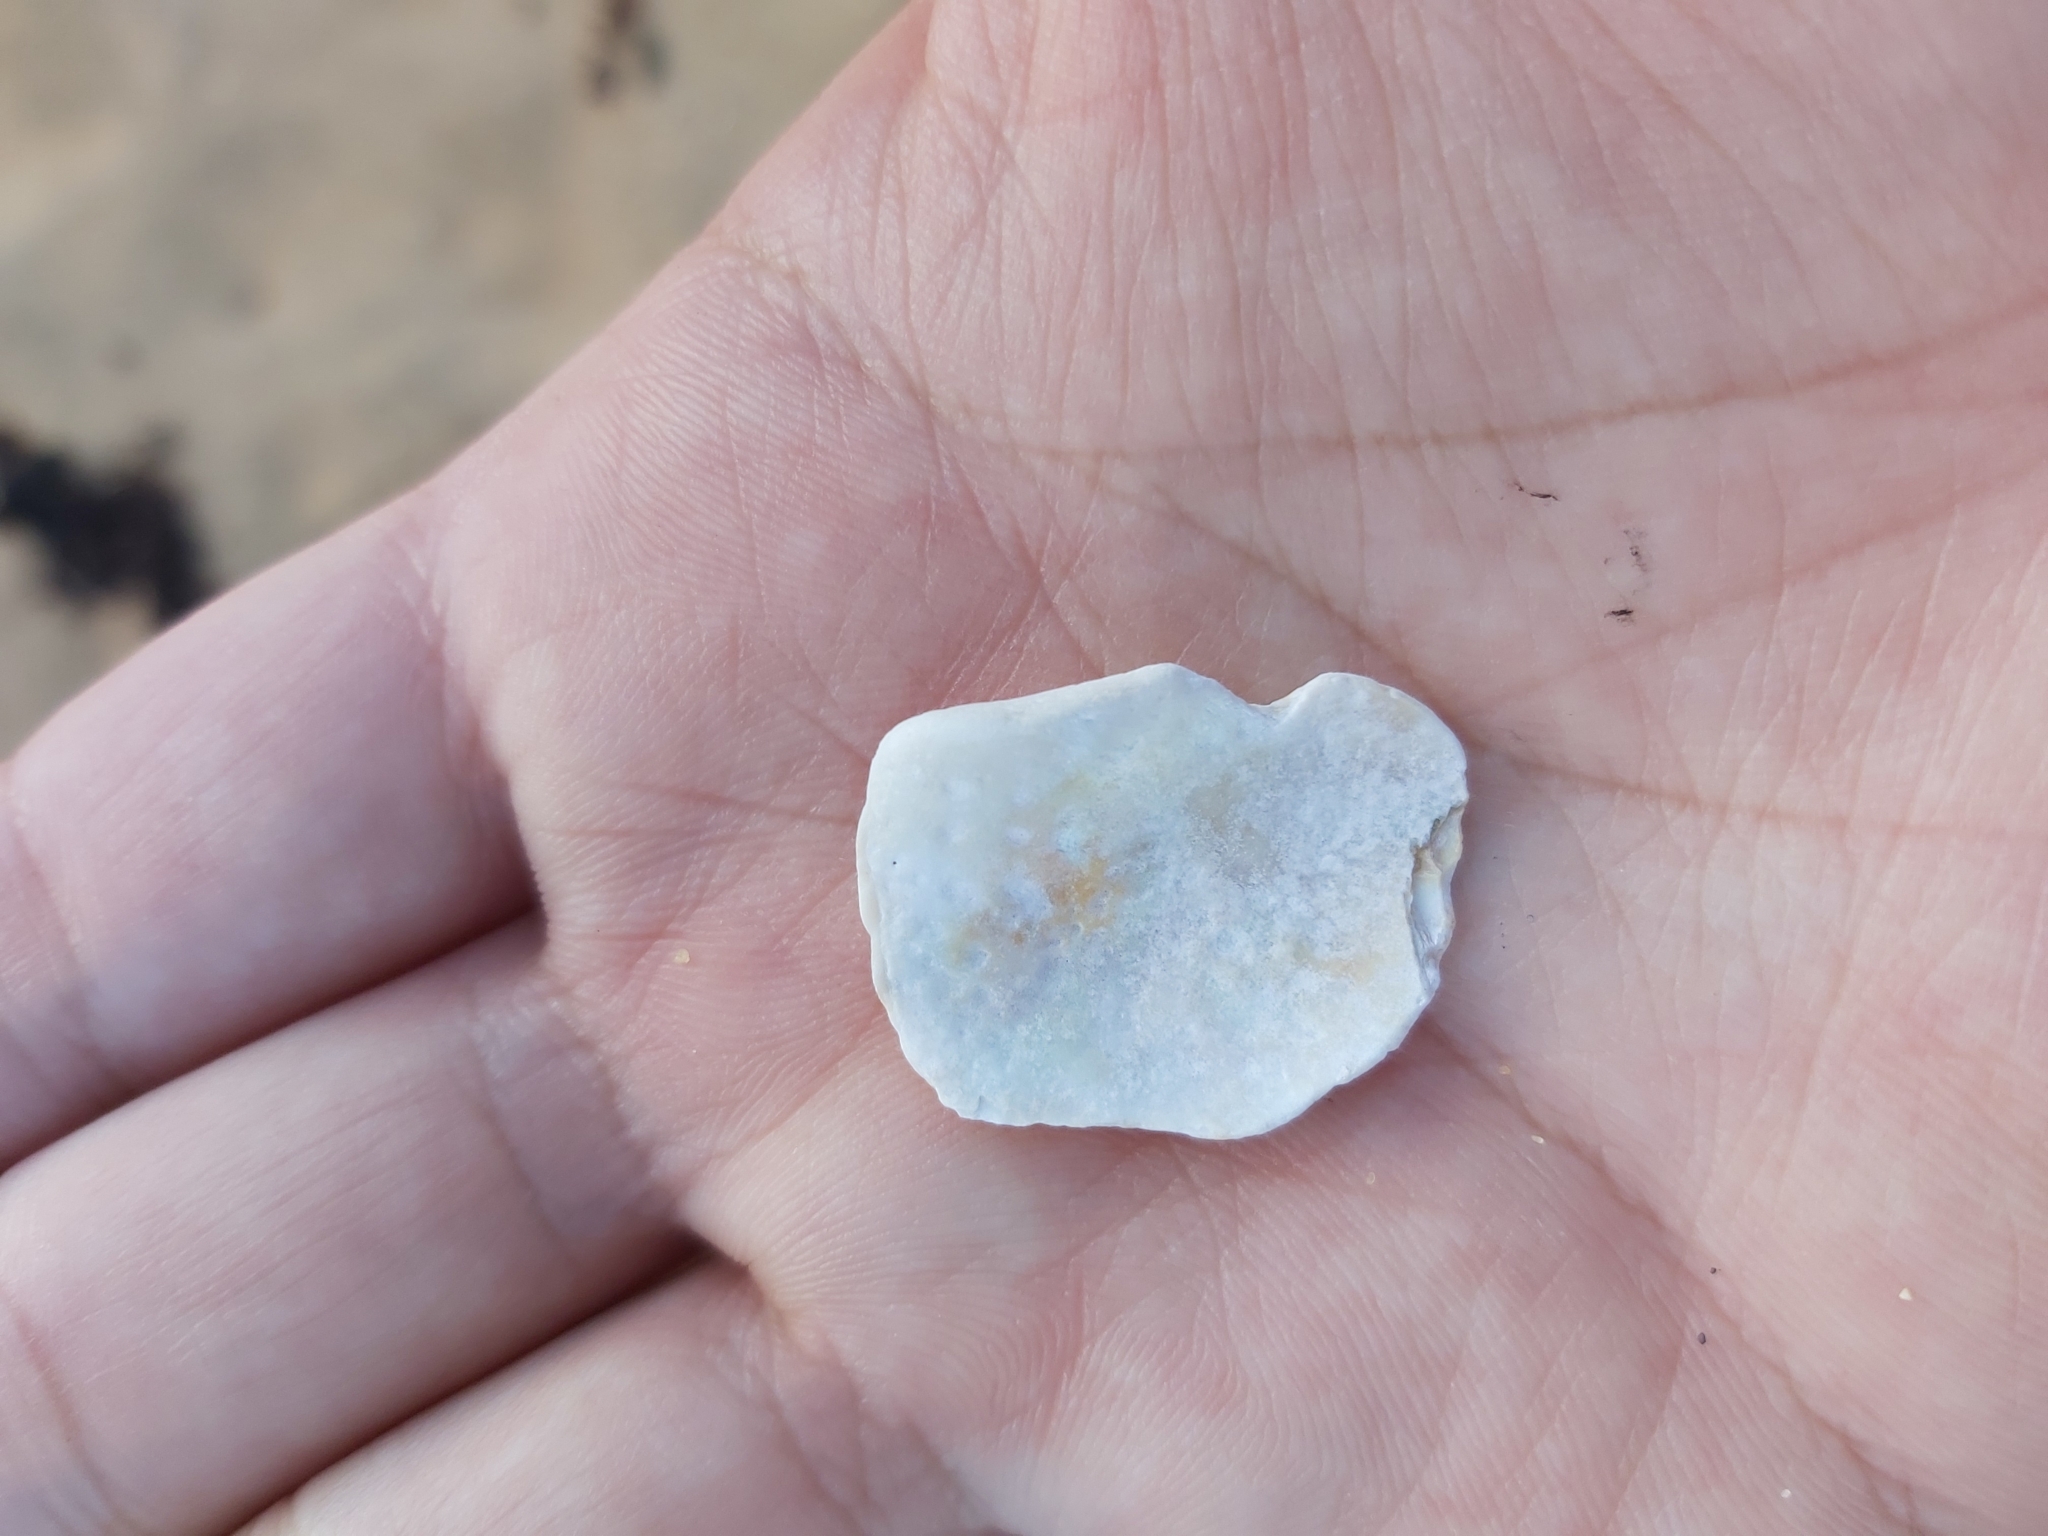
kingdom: Animalia
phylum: Mollusca
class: Gastropoda
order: Trochida
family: Turbinidae
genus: Turbo
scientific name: Turbo militaris
